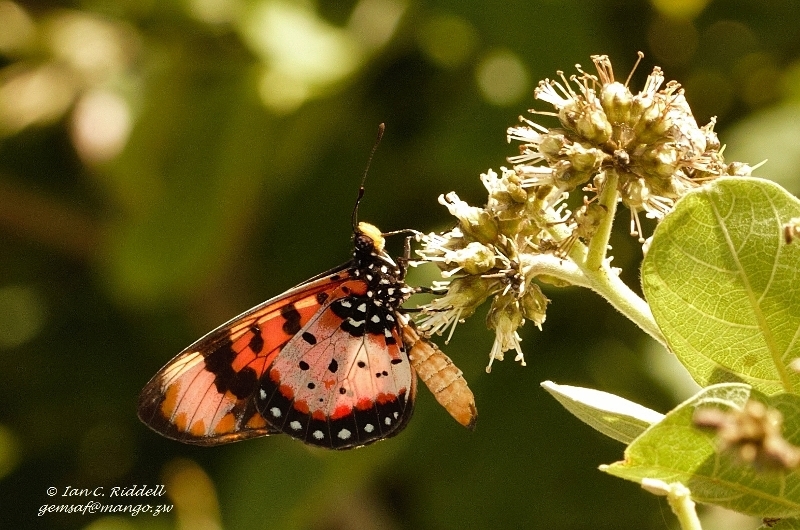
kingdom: Animalia
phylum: Arthropoda
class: Insecta
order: Lepidoptera
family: Nymphalidae
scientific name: Nymphalidae
